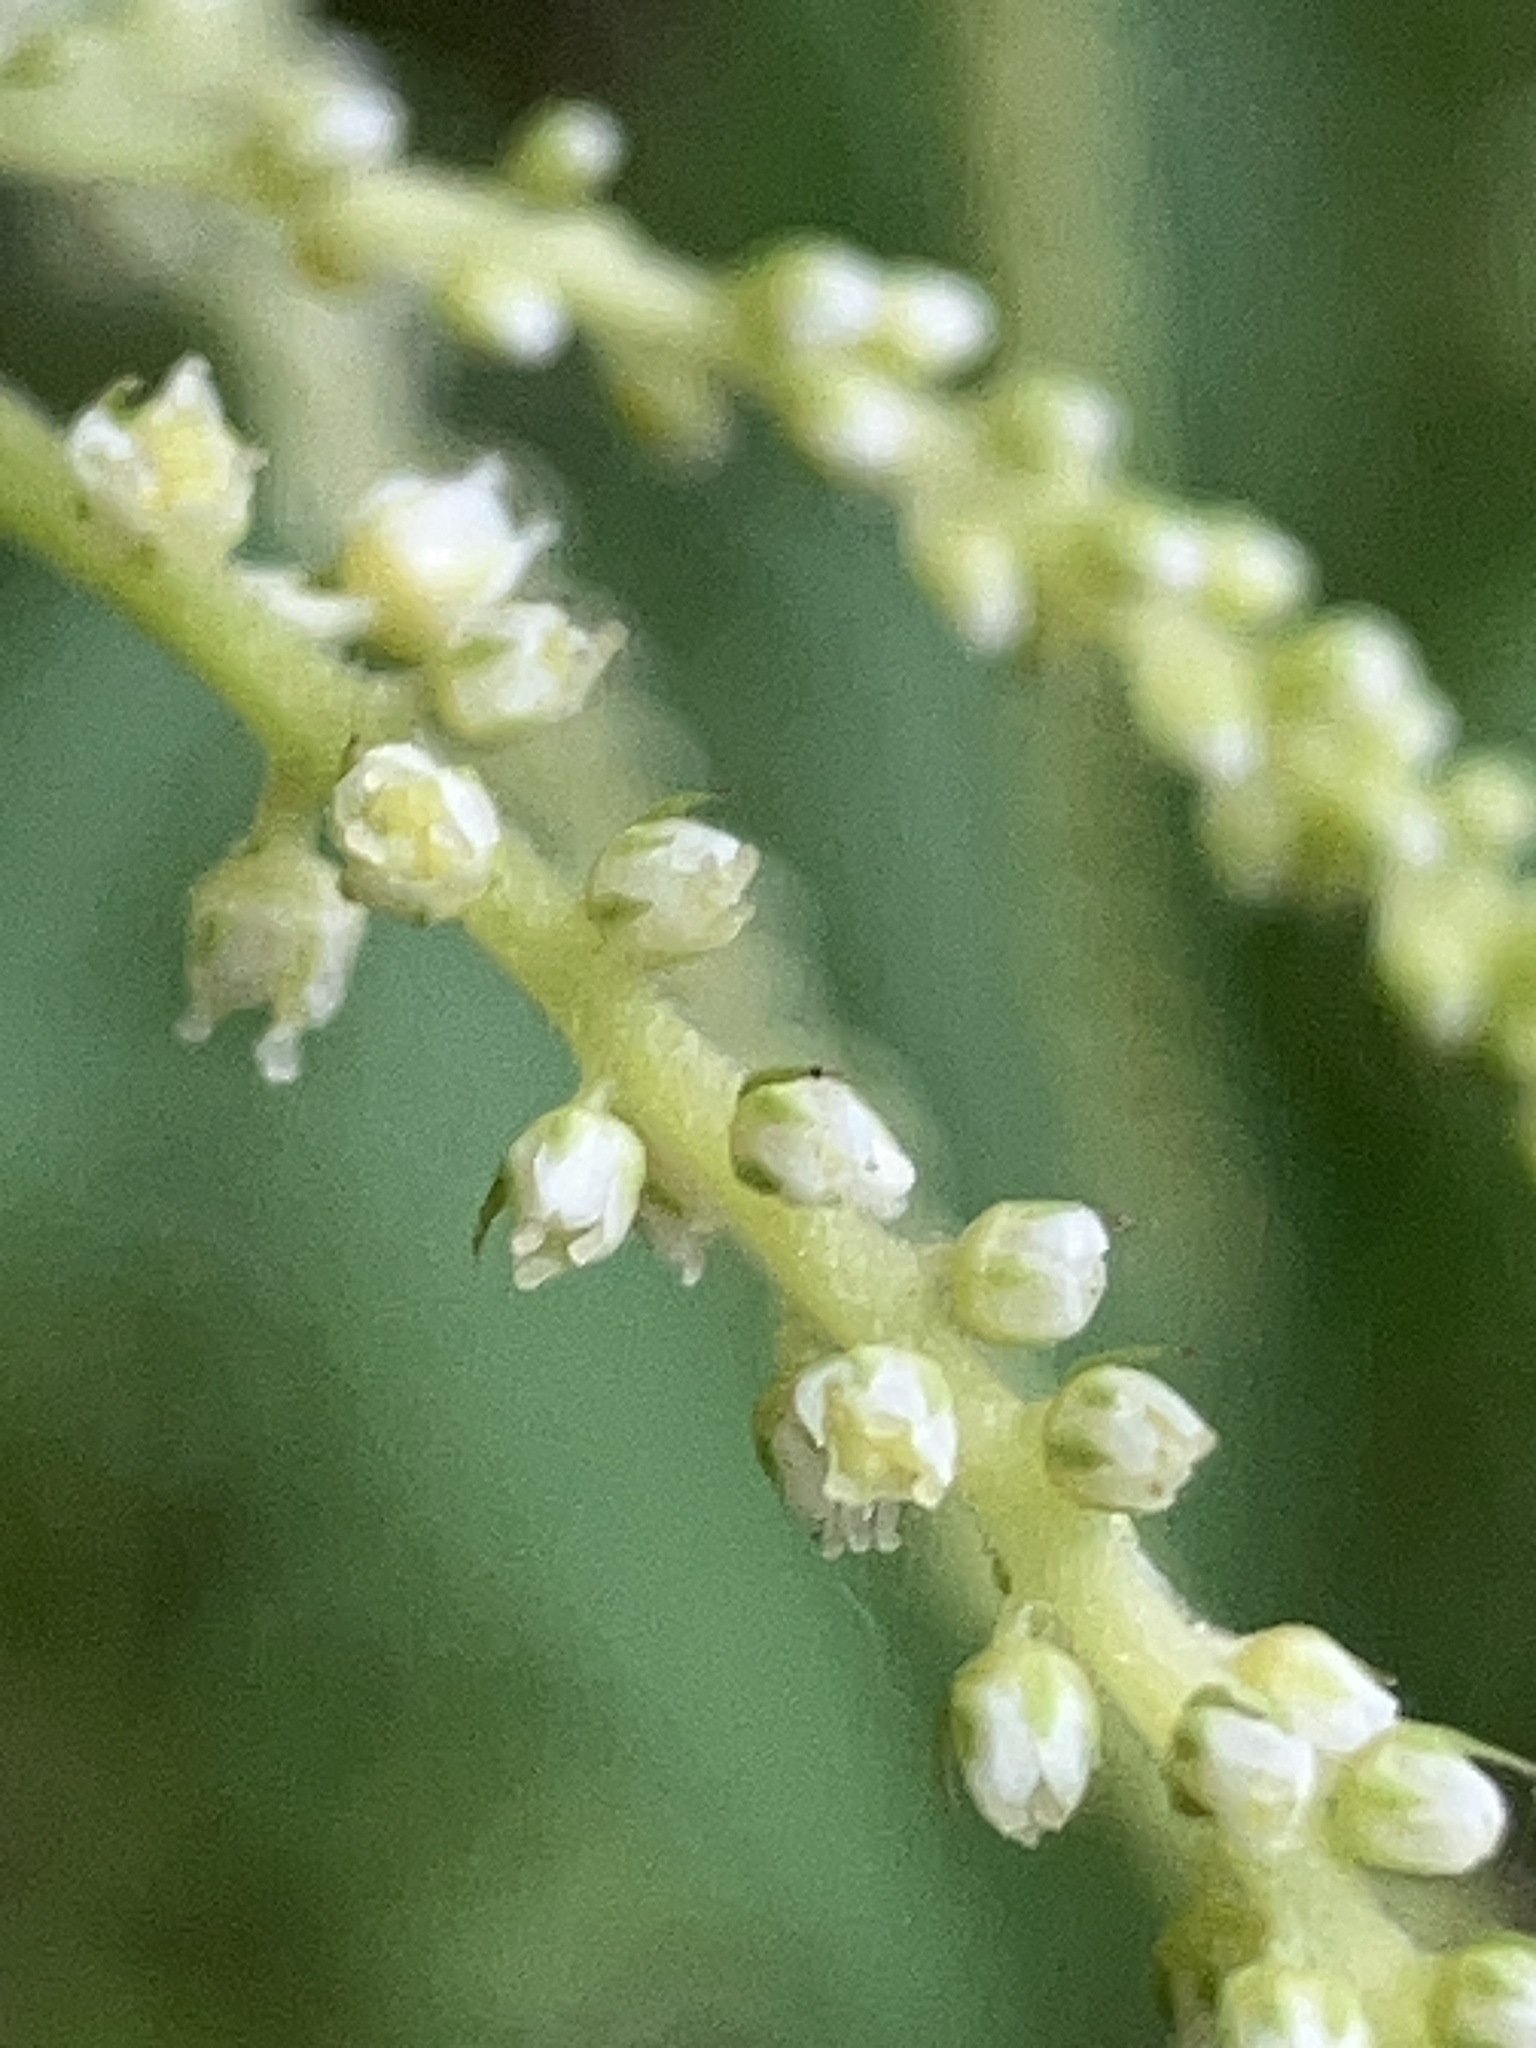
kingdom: Plantae
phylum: Tracheophyta
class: Magnoliopsida
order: Rosales
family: Rosaceae
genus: Aruncus
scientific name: Aruncus dioicus
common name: Buck's-beard
